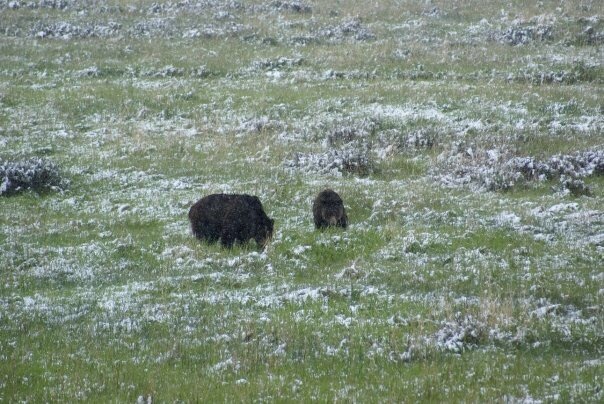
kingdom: Animalia
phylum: Chordata
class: Mammalia
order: Carnivora
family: Ursidae
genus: Ursus
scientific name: Ursus arctos
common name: Brown bear
